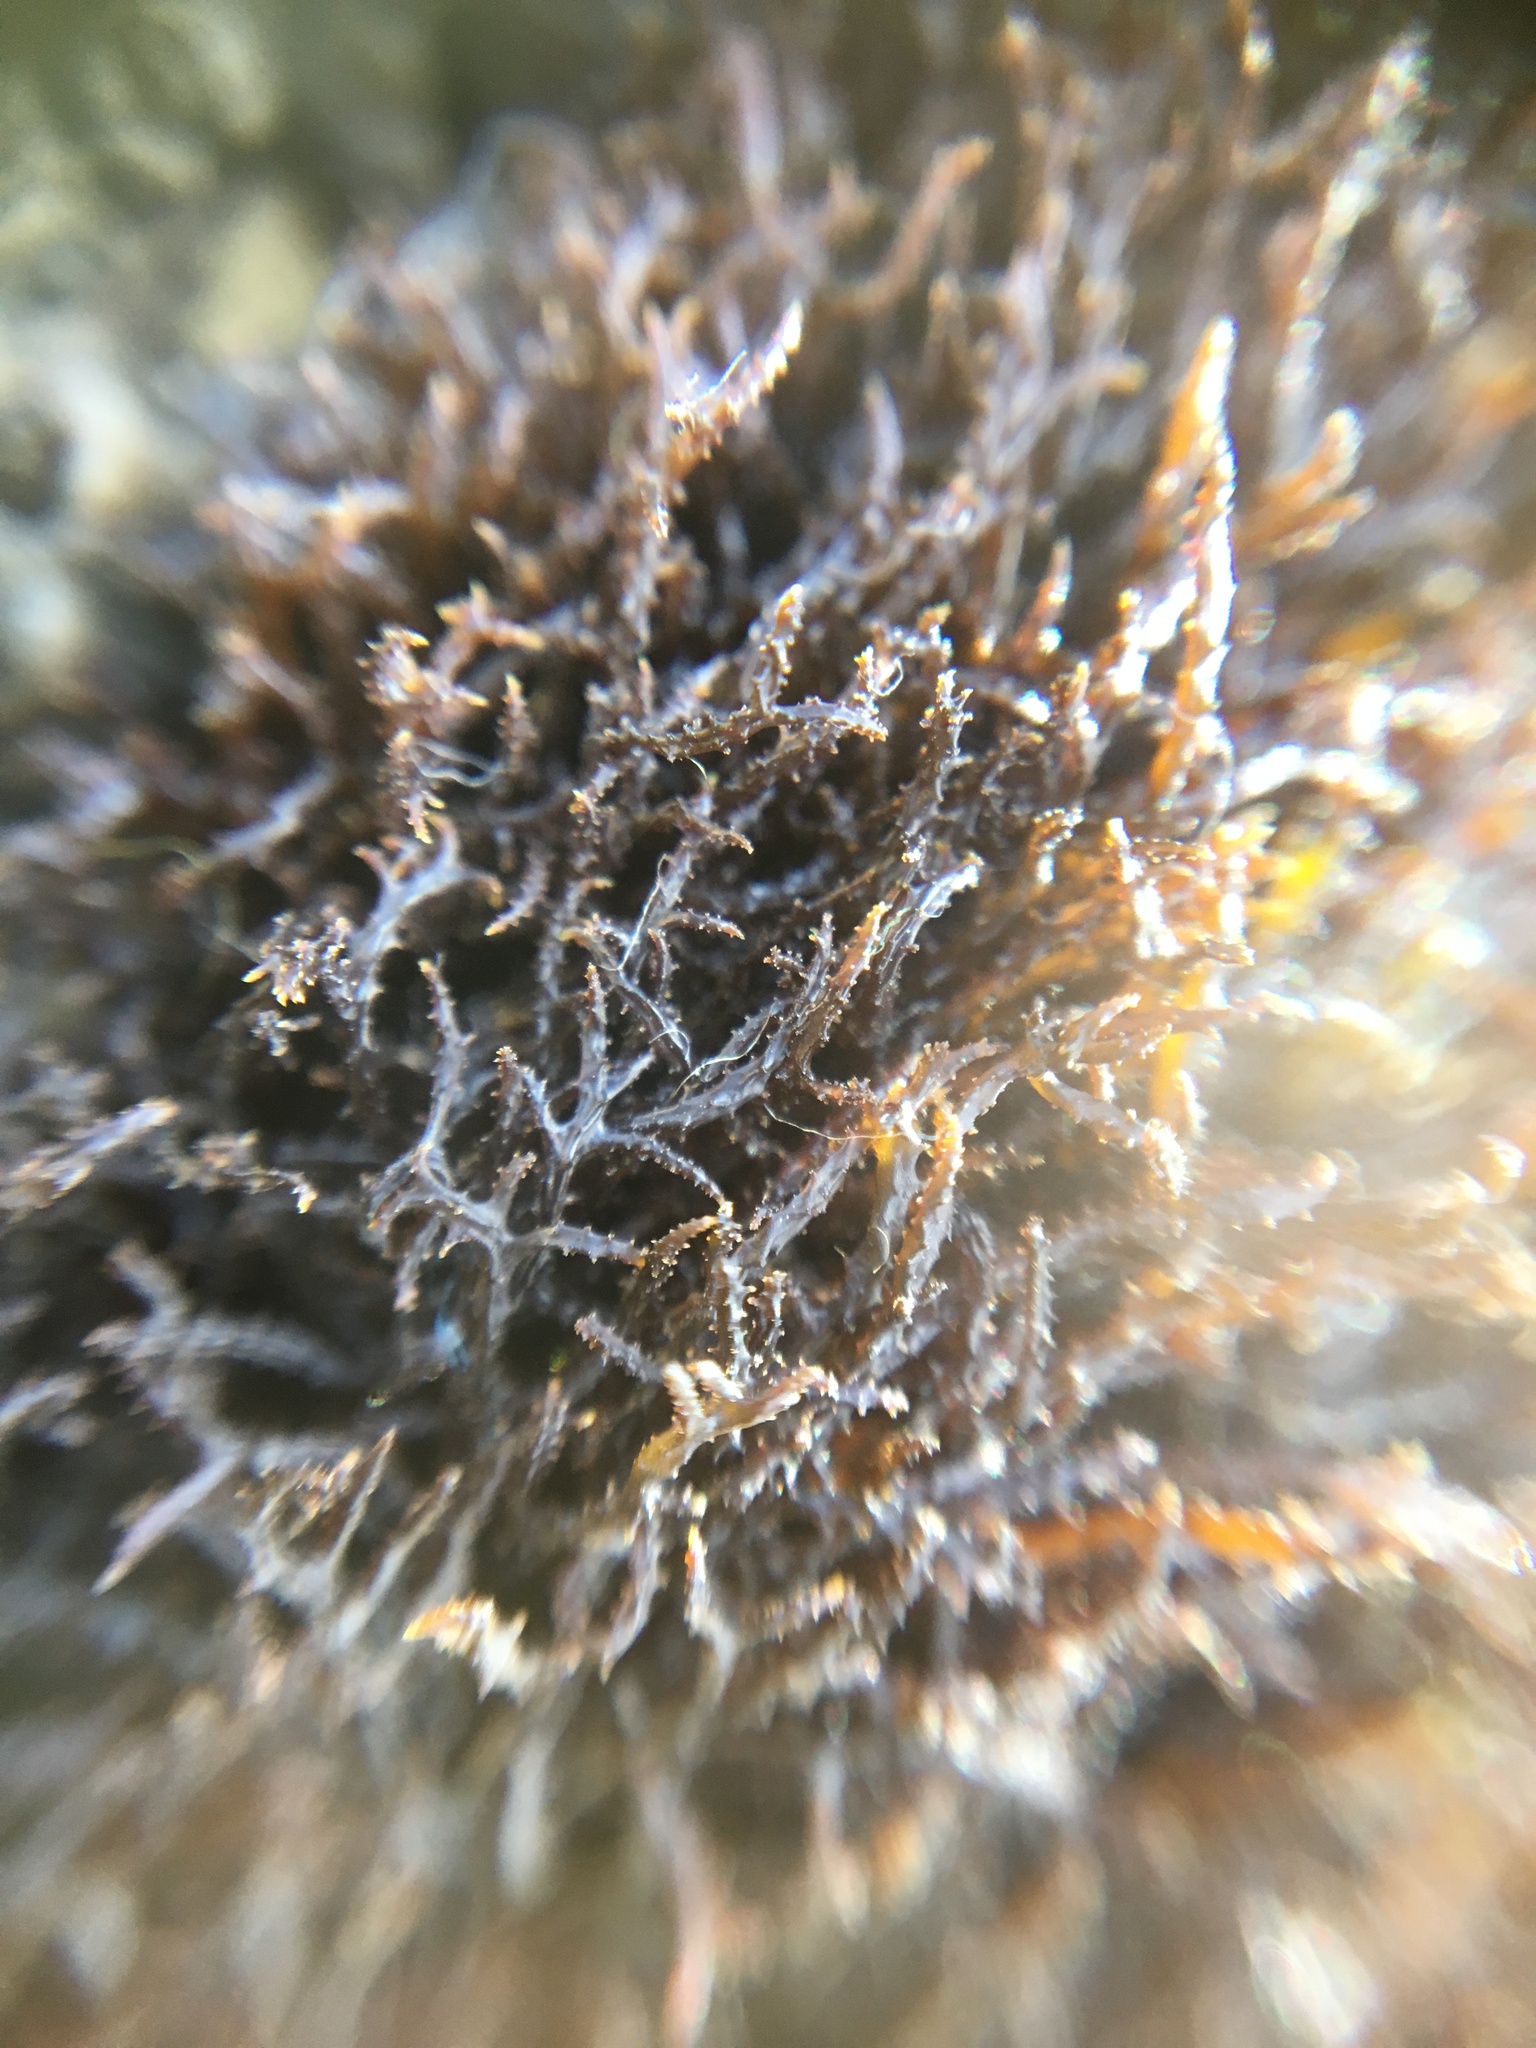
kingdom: Plantae
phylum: Rhodophyta
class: Florideophyceae
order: Gigartinales
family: Endocladiaceae
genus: Endocladia
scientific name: Endocladia muricata
